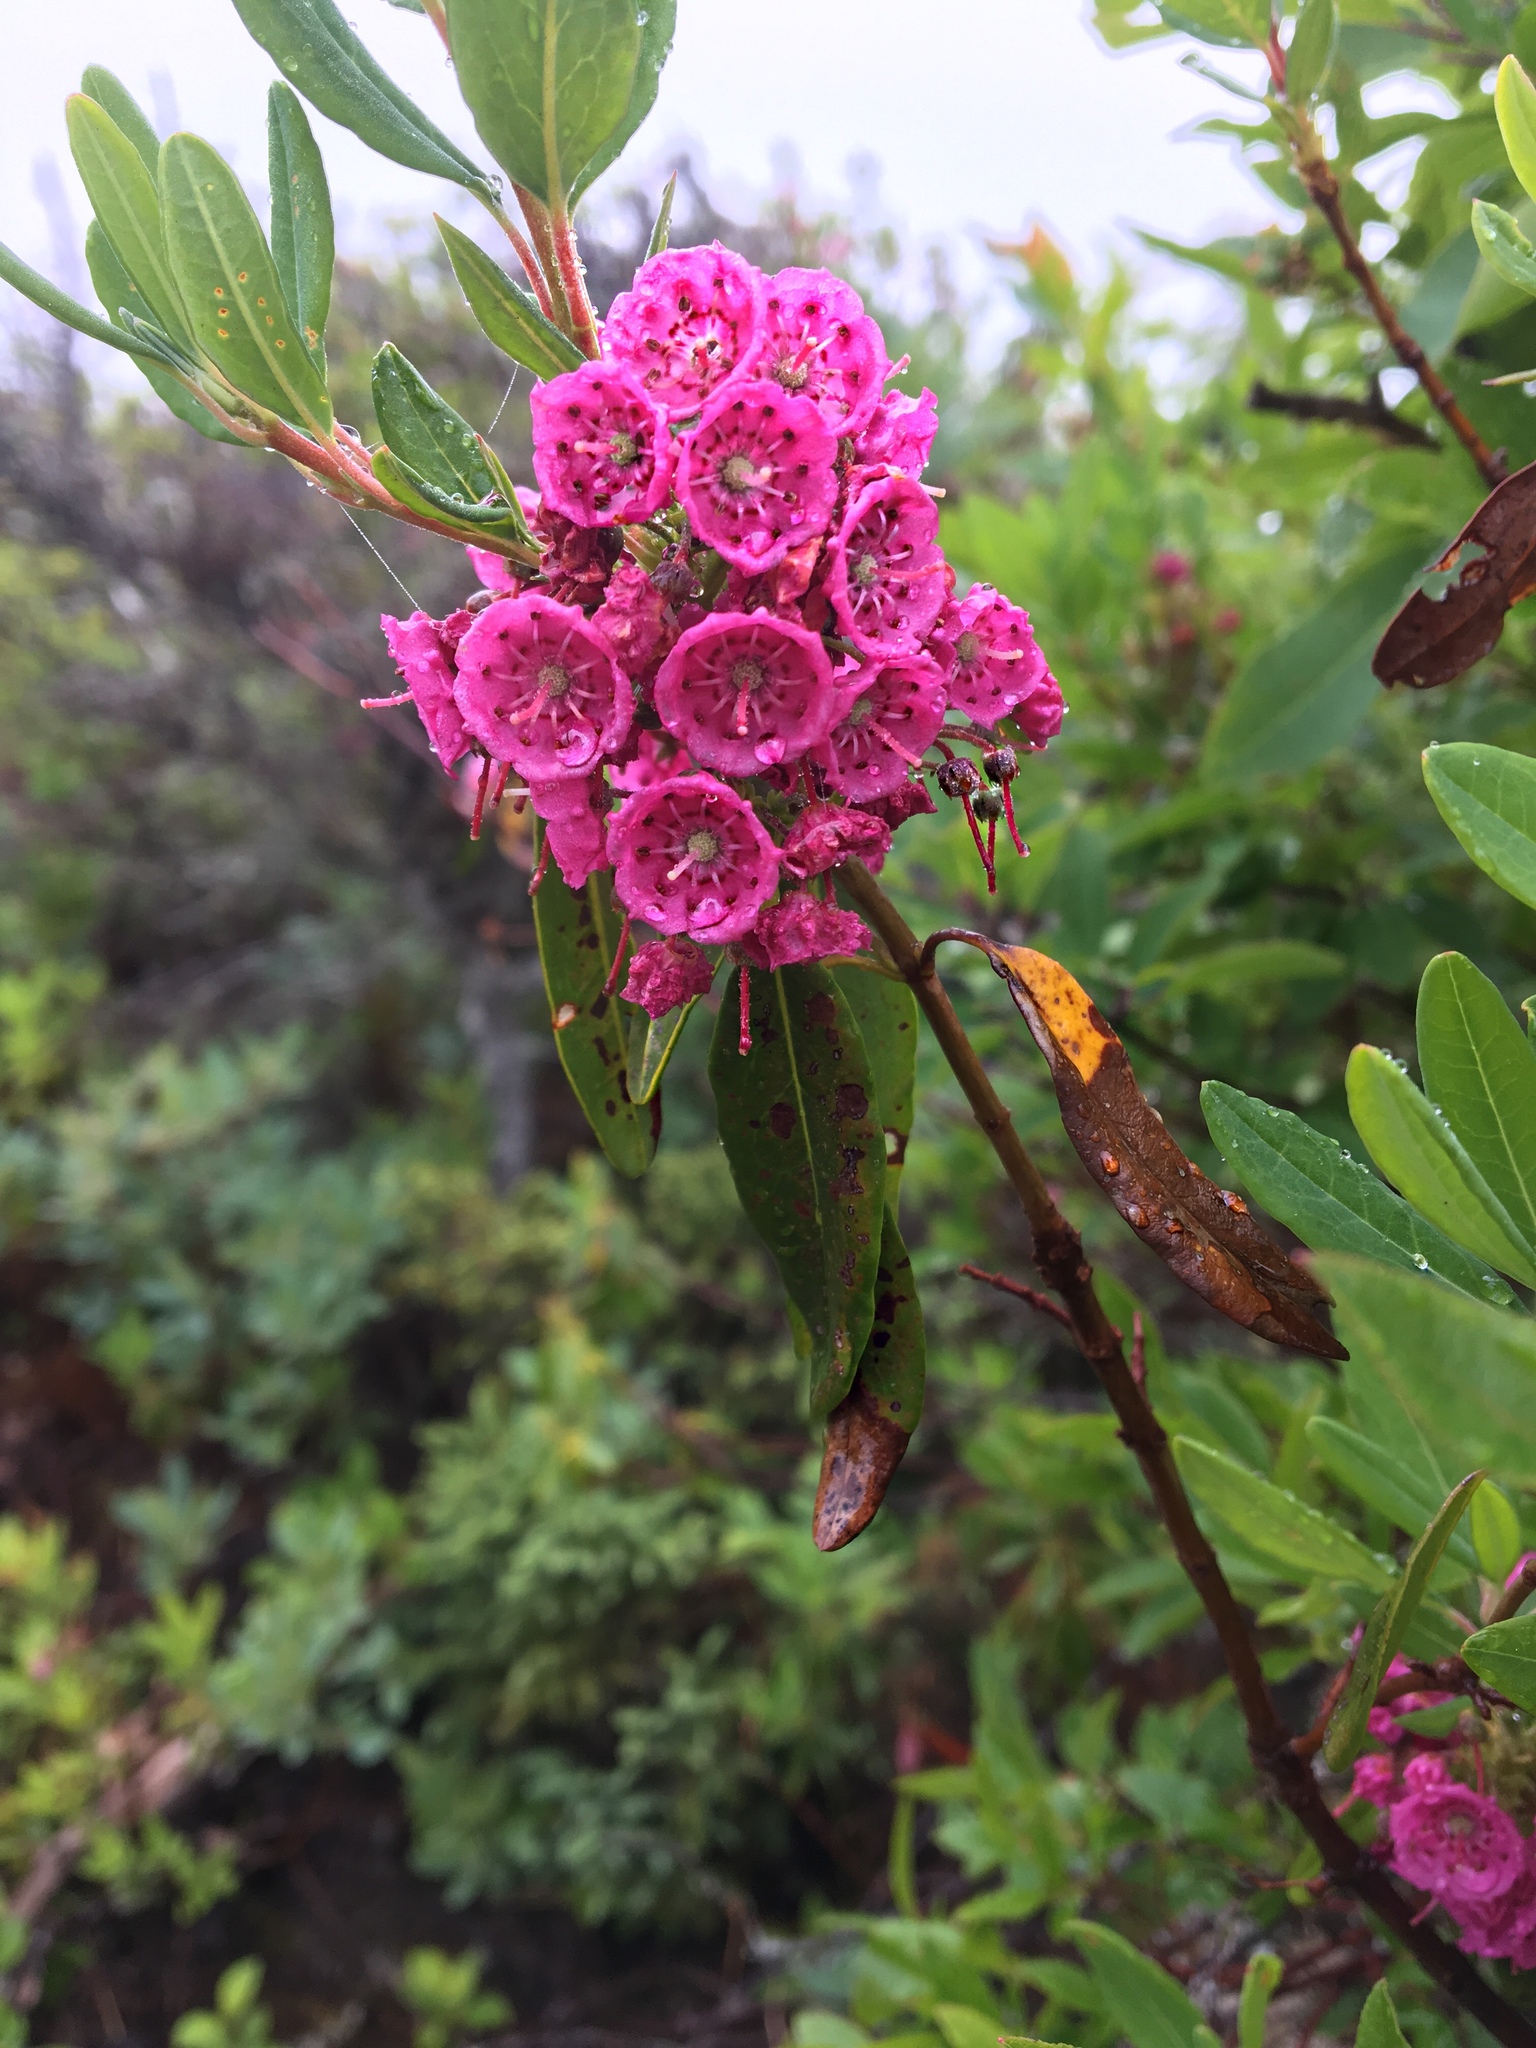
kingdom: Plantae
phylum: Tracheophyta
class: Magnoliopsida
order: Ericales
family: Ericaceae
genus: Kalmia
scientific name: Kalmia angustifolia
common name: Sheep-laurel
